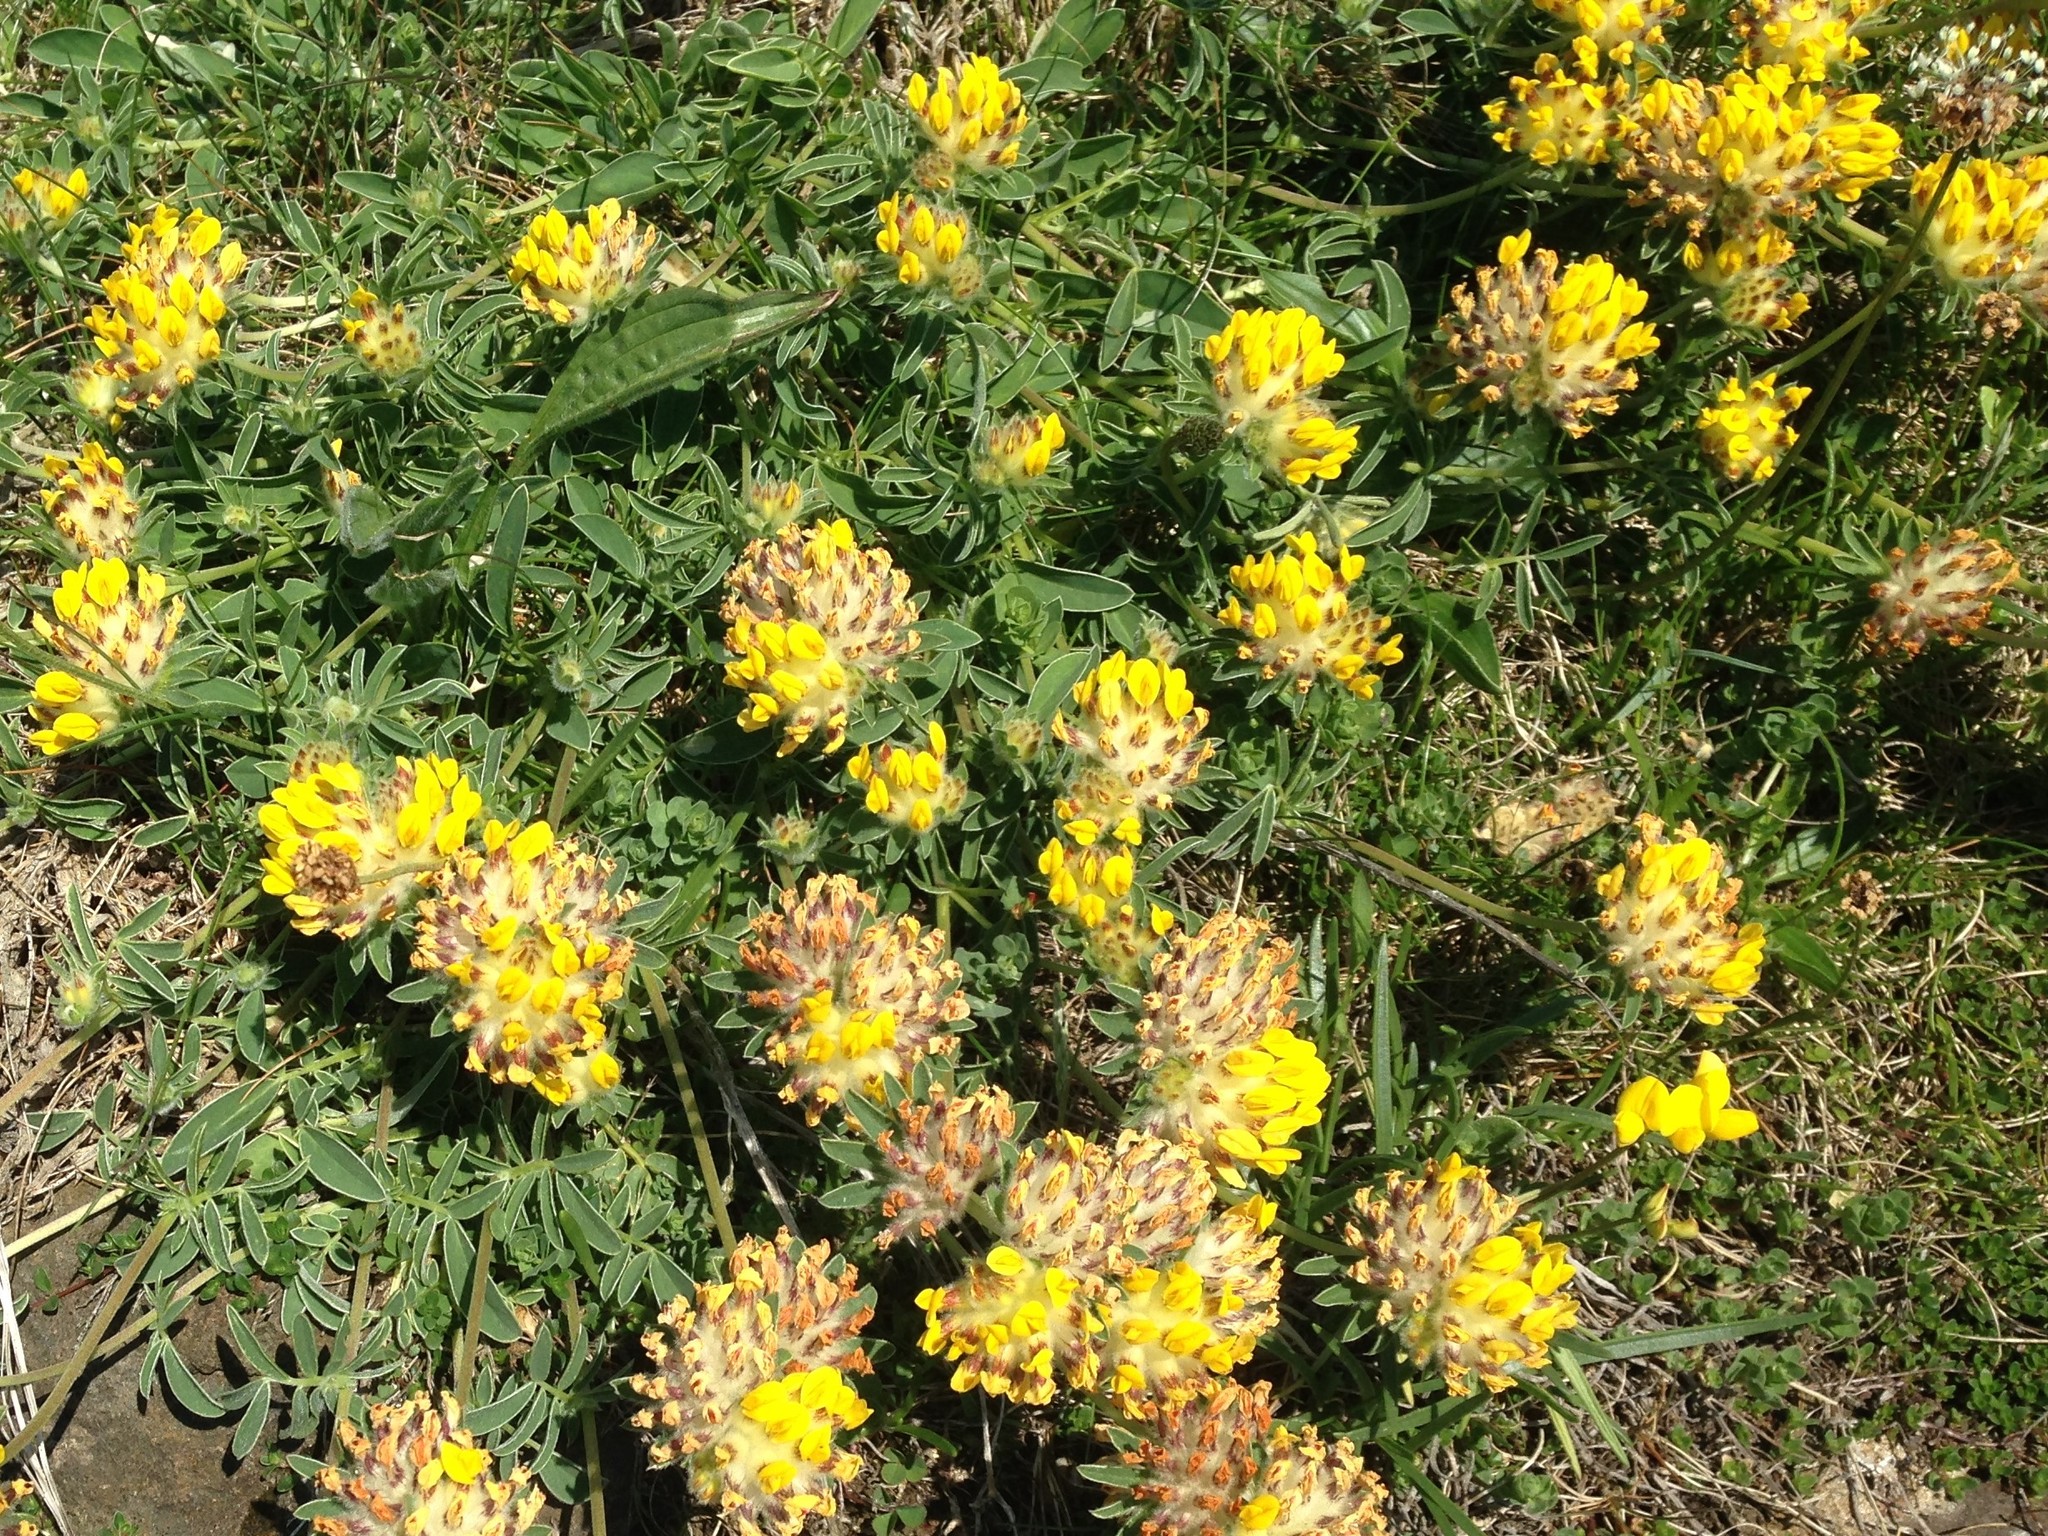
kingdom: Plantae
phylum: Tracheophyta
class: Magnoliopsida
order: Fabales
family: Fabaceae
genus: Anthyllis
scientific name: Anthyllis vulneraria
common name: Kidney vetch
